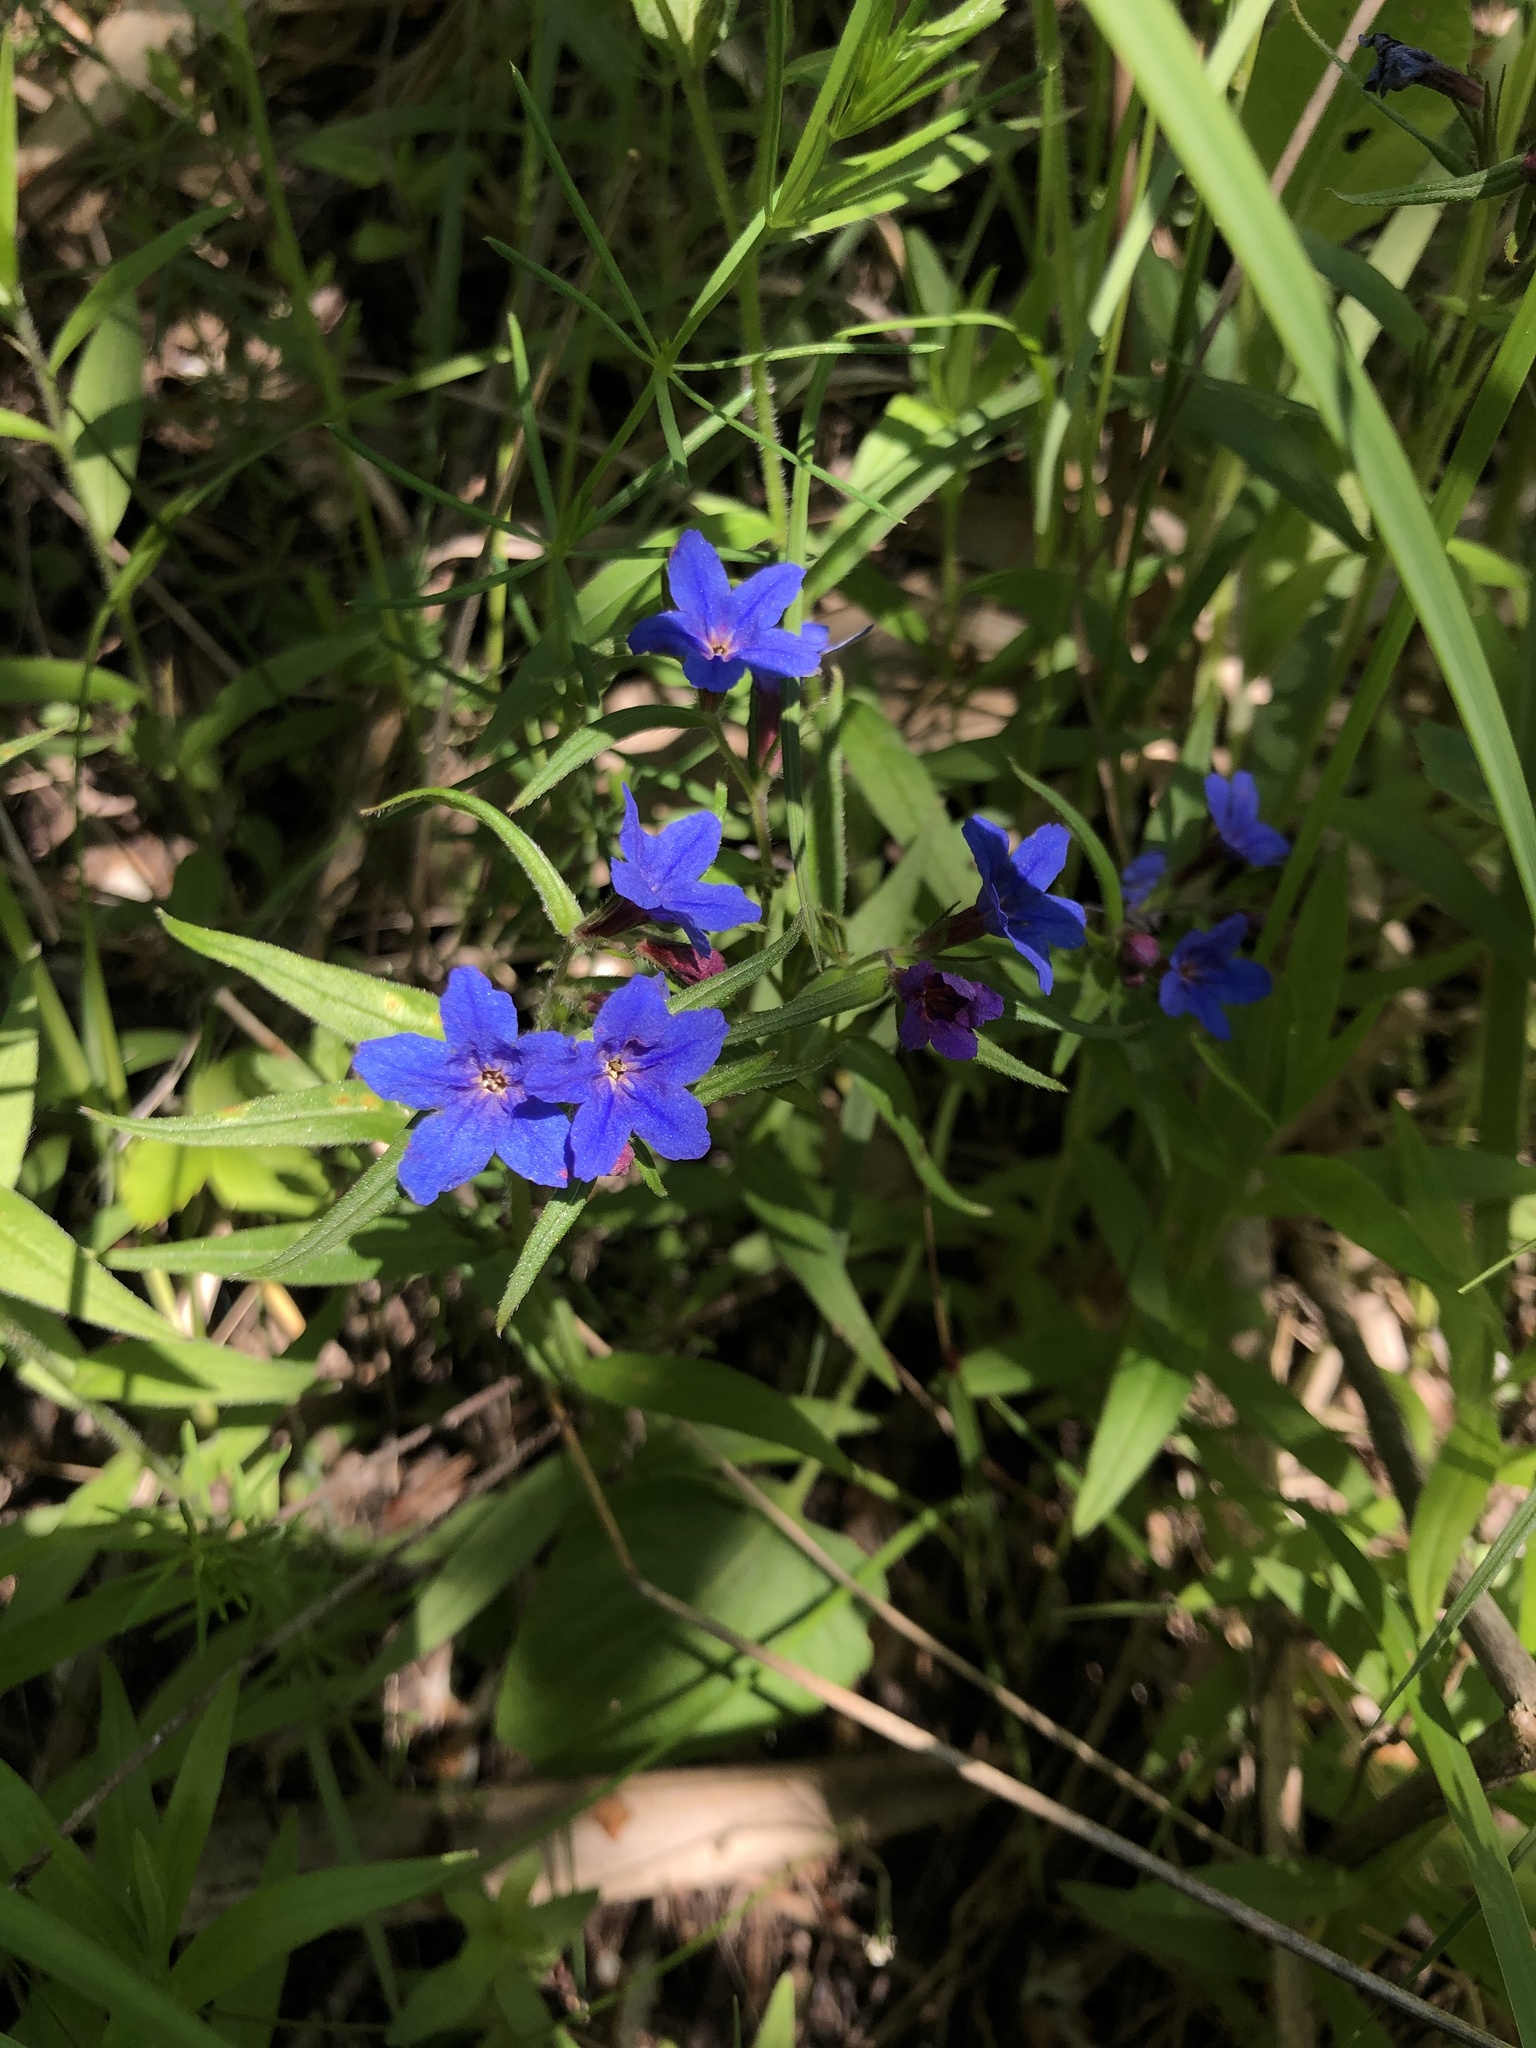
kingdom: Plantae
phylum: Tracheophyta
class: Magnoliopsida
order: Boraginales
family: Boraginaceae
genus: Aegonychon
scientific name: Aegonychon purpurocaeruleum
